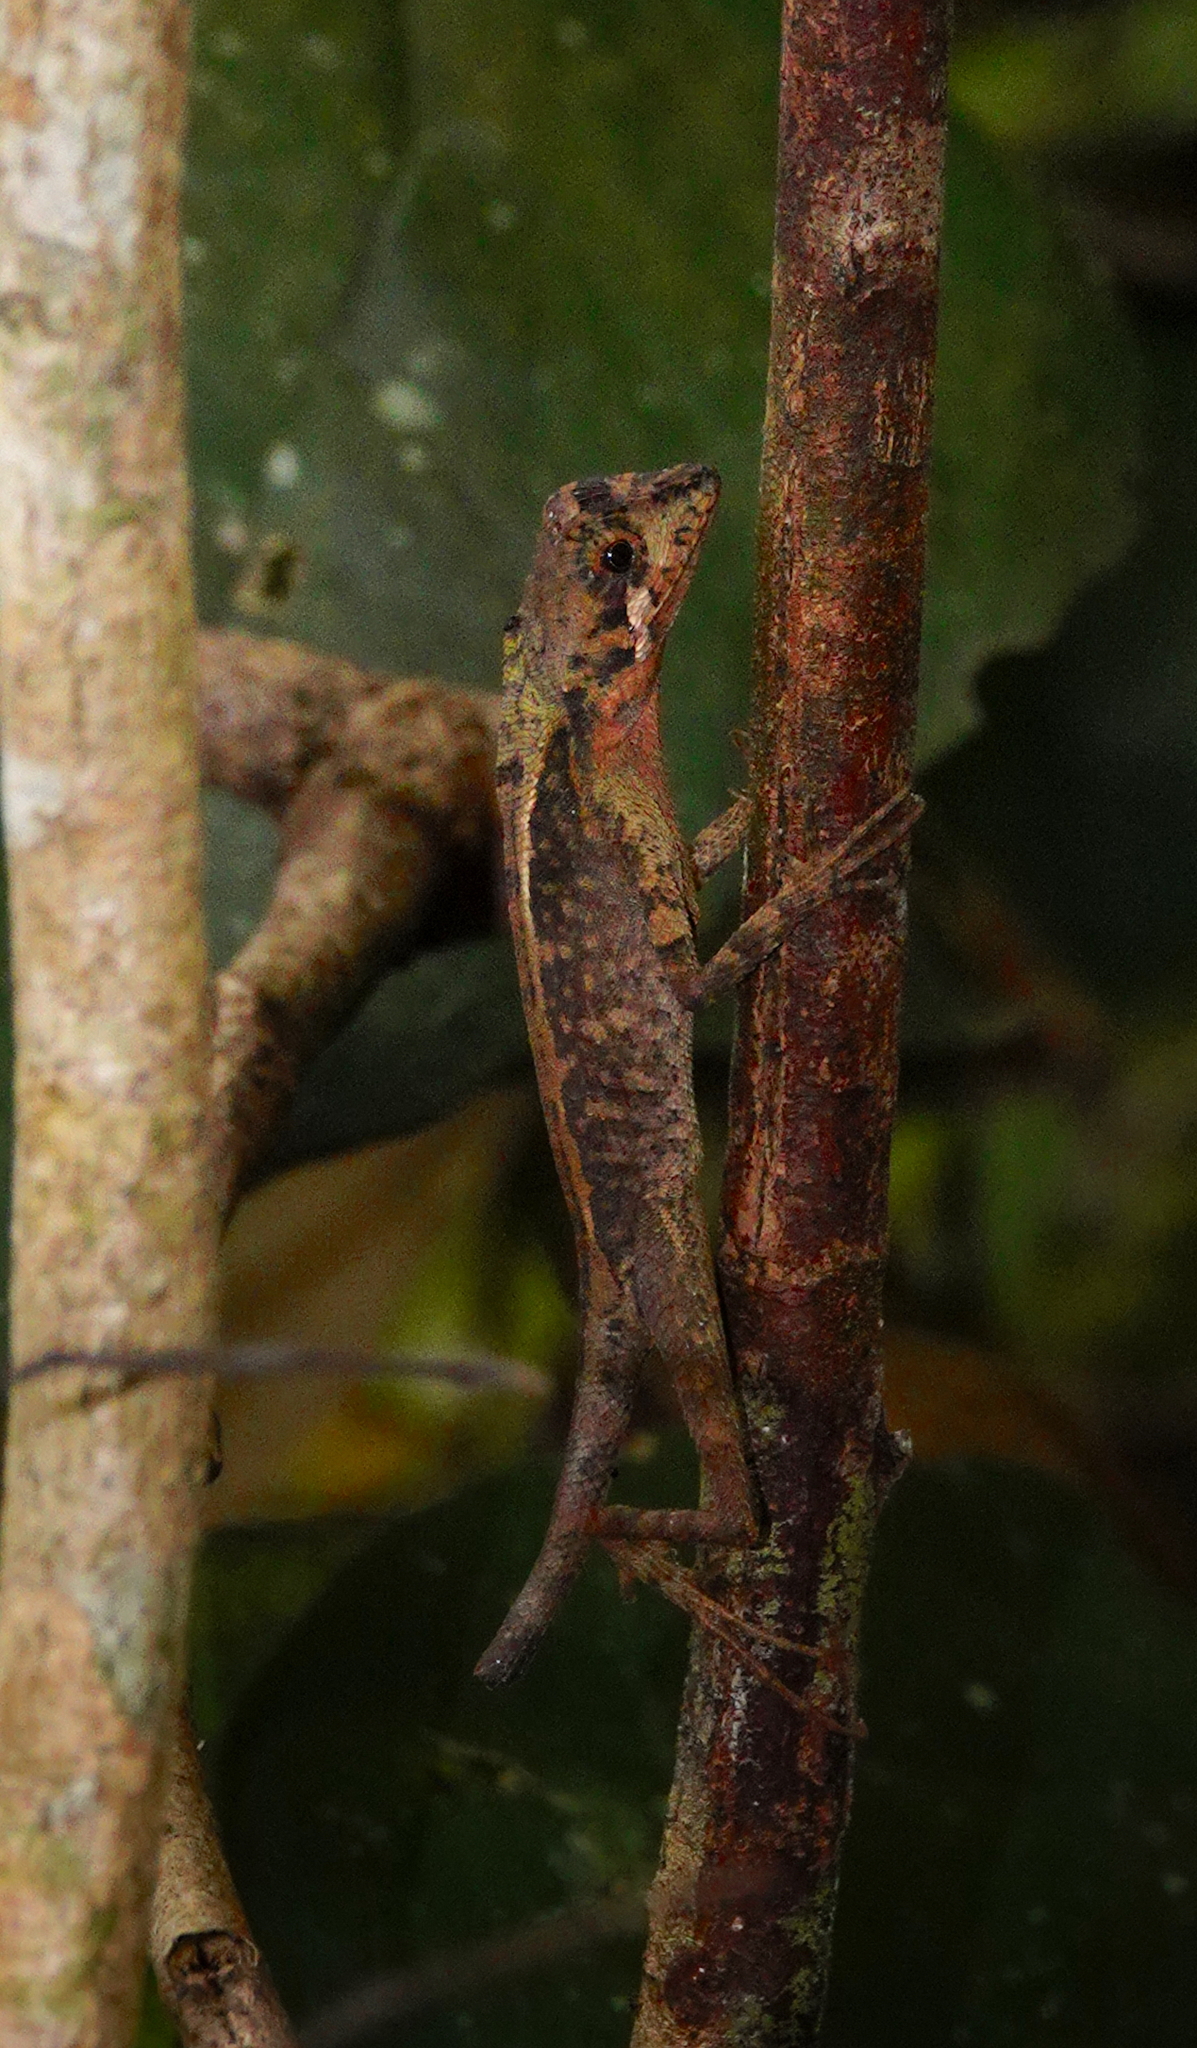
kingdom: Animalia
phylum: Chordata
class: Squamata
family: Agamidae
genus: Otocryptis
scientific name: Otocryptis wiegmanni
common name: Wiegmann's agama
